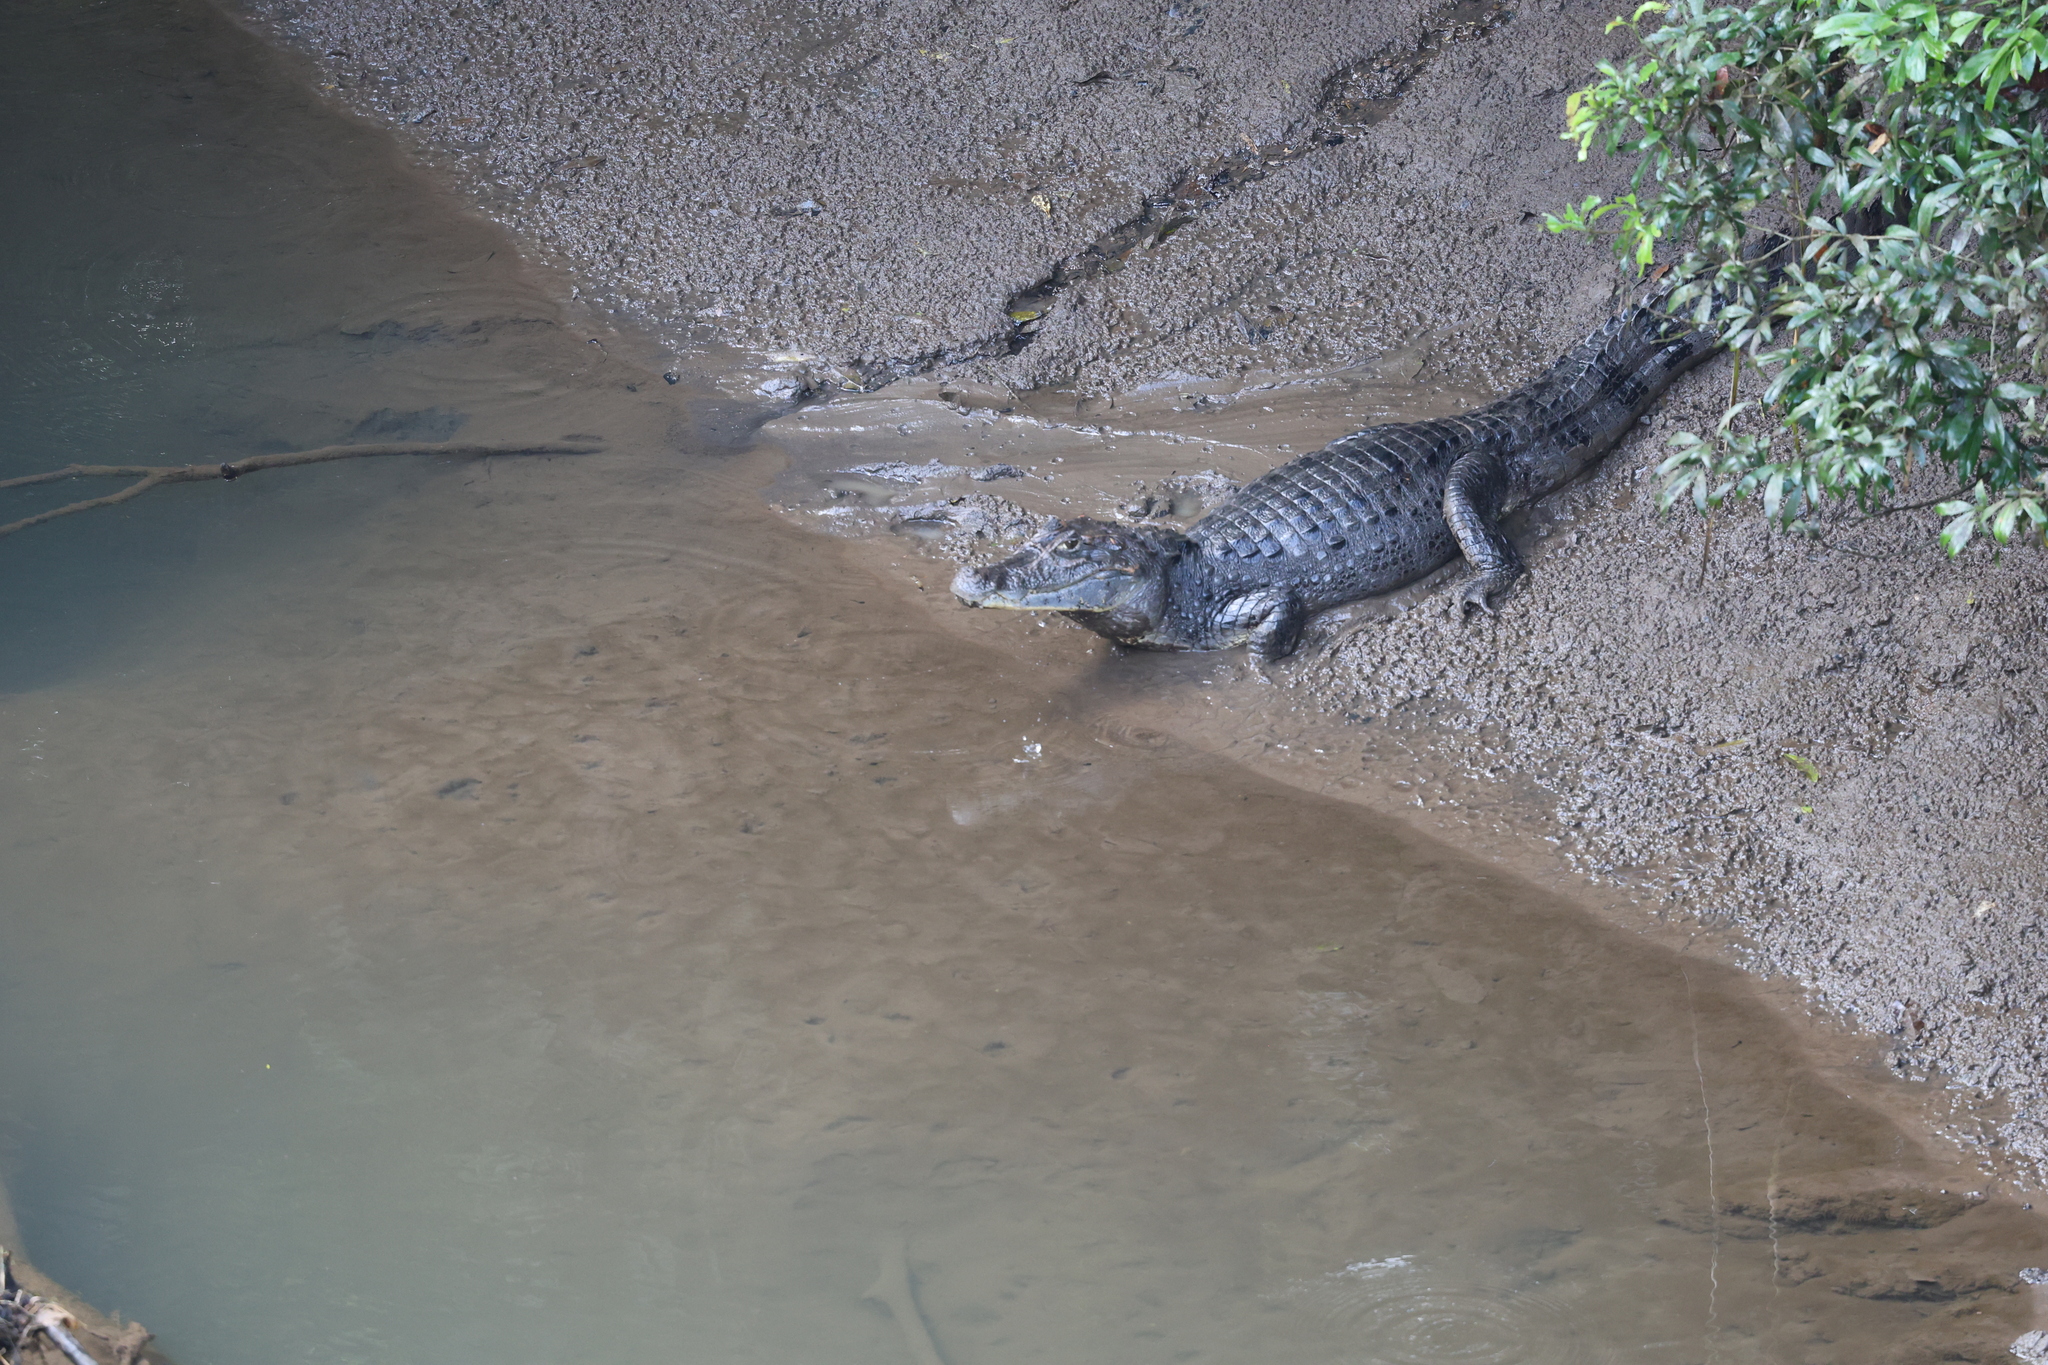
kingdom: Animalia
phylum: Chordata
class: Crocodylia
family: Alligatoridae
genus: Caiman
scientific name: Caiman crocodilus
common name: Common caiman
